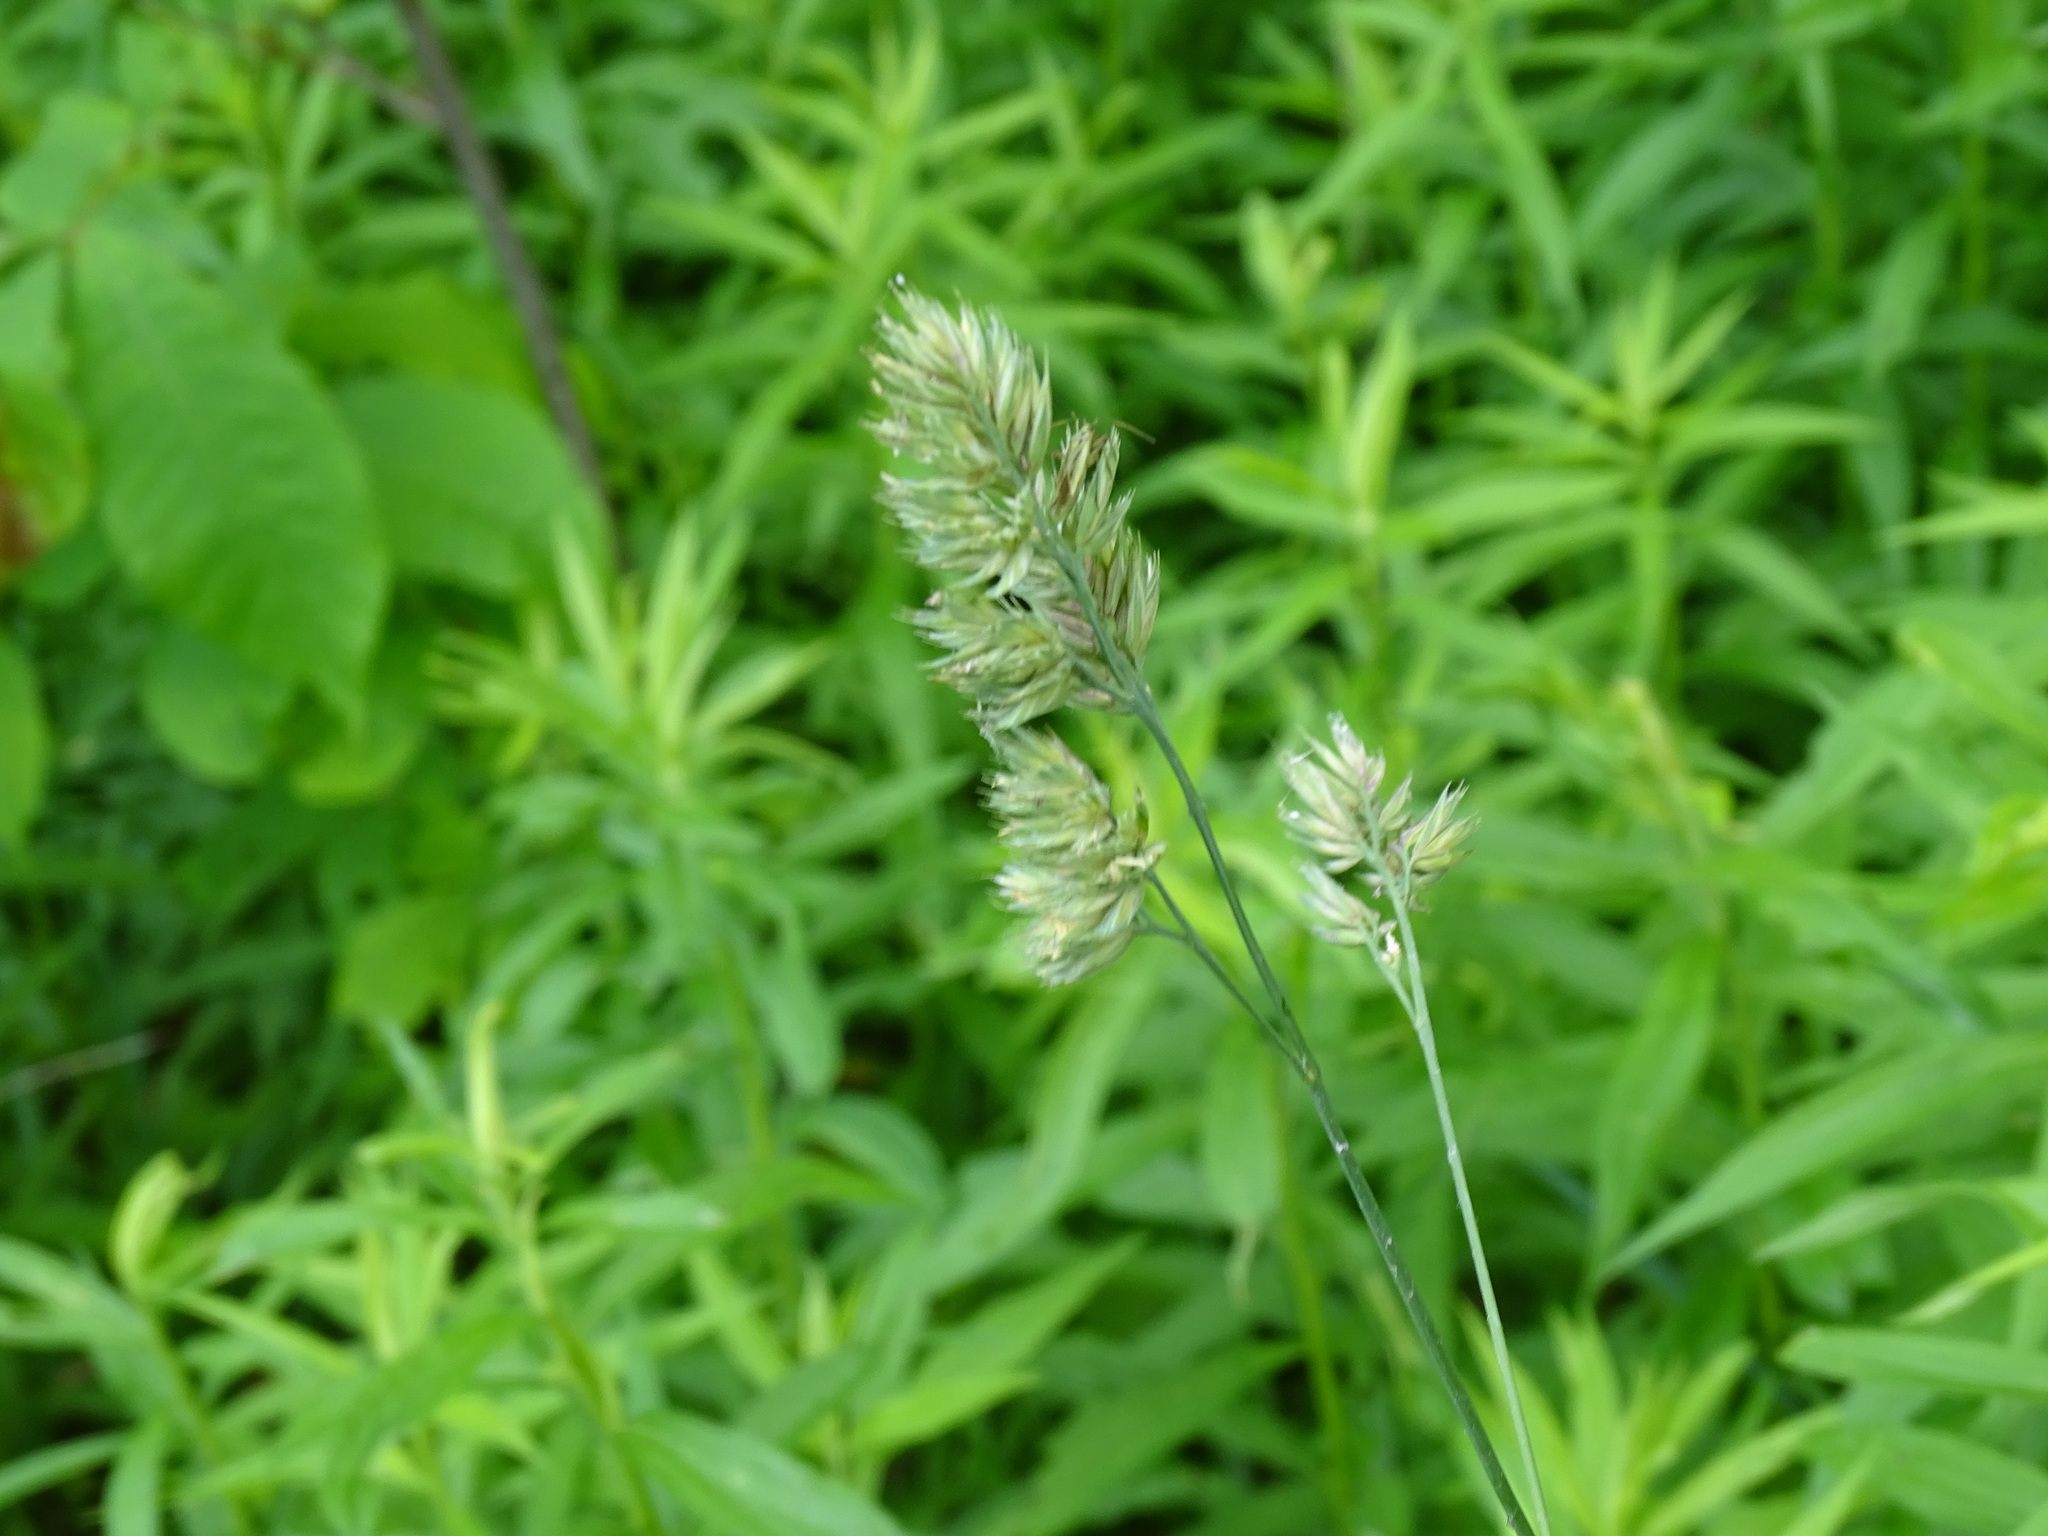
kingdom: Plantae
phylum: Tracheophyta
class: Liliopsida
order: Poales
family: Poaceae
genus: Dactylis
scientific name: Dactylis glomerata
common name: Orchardgrass
